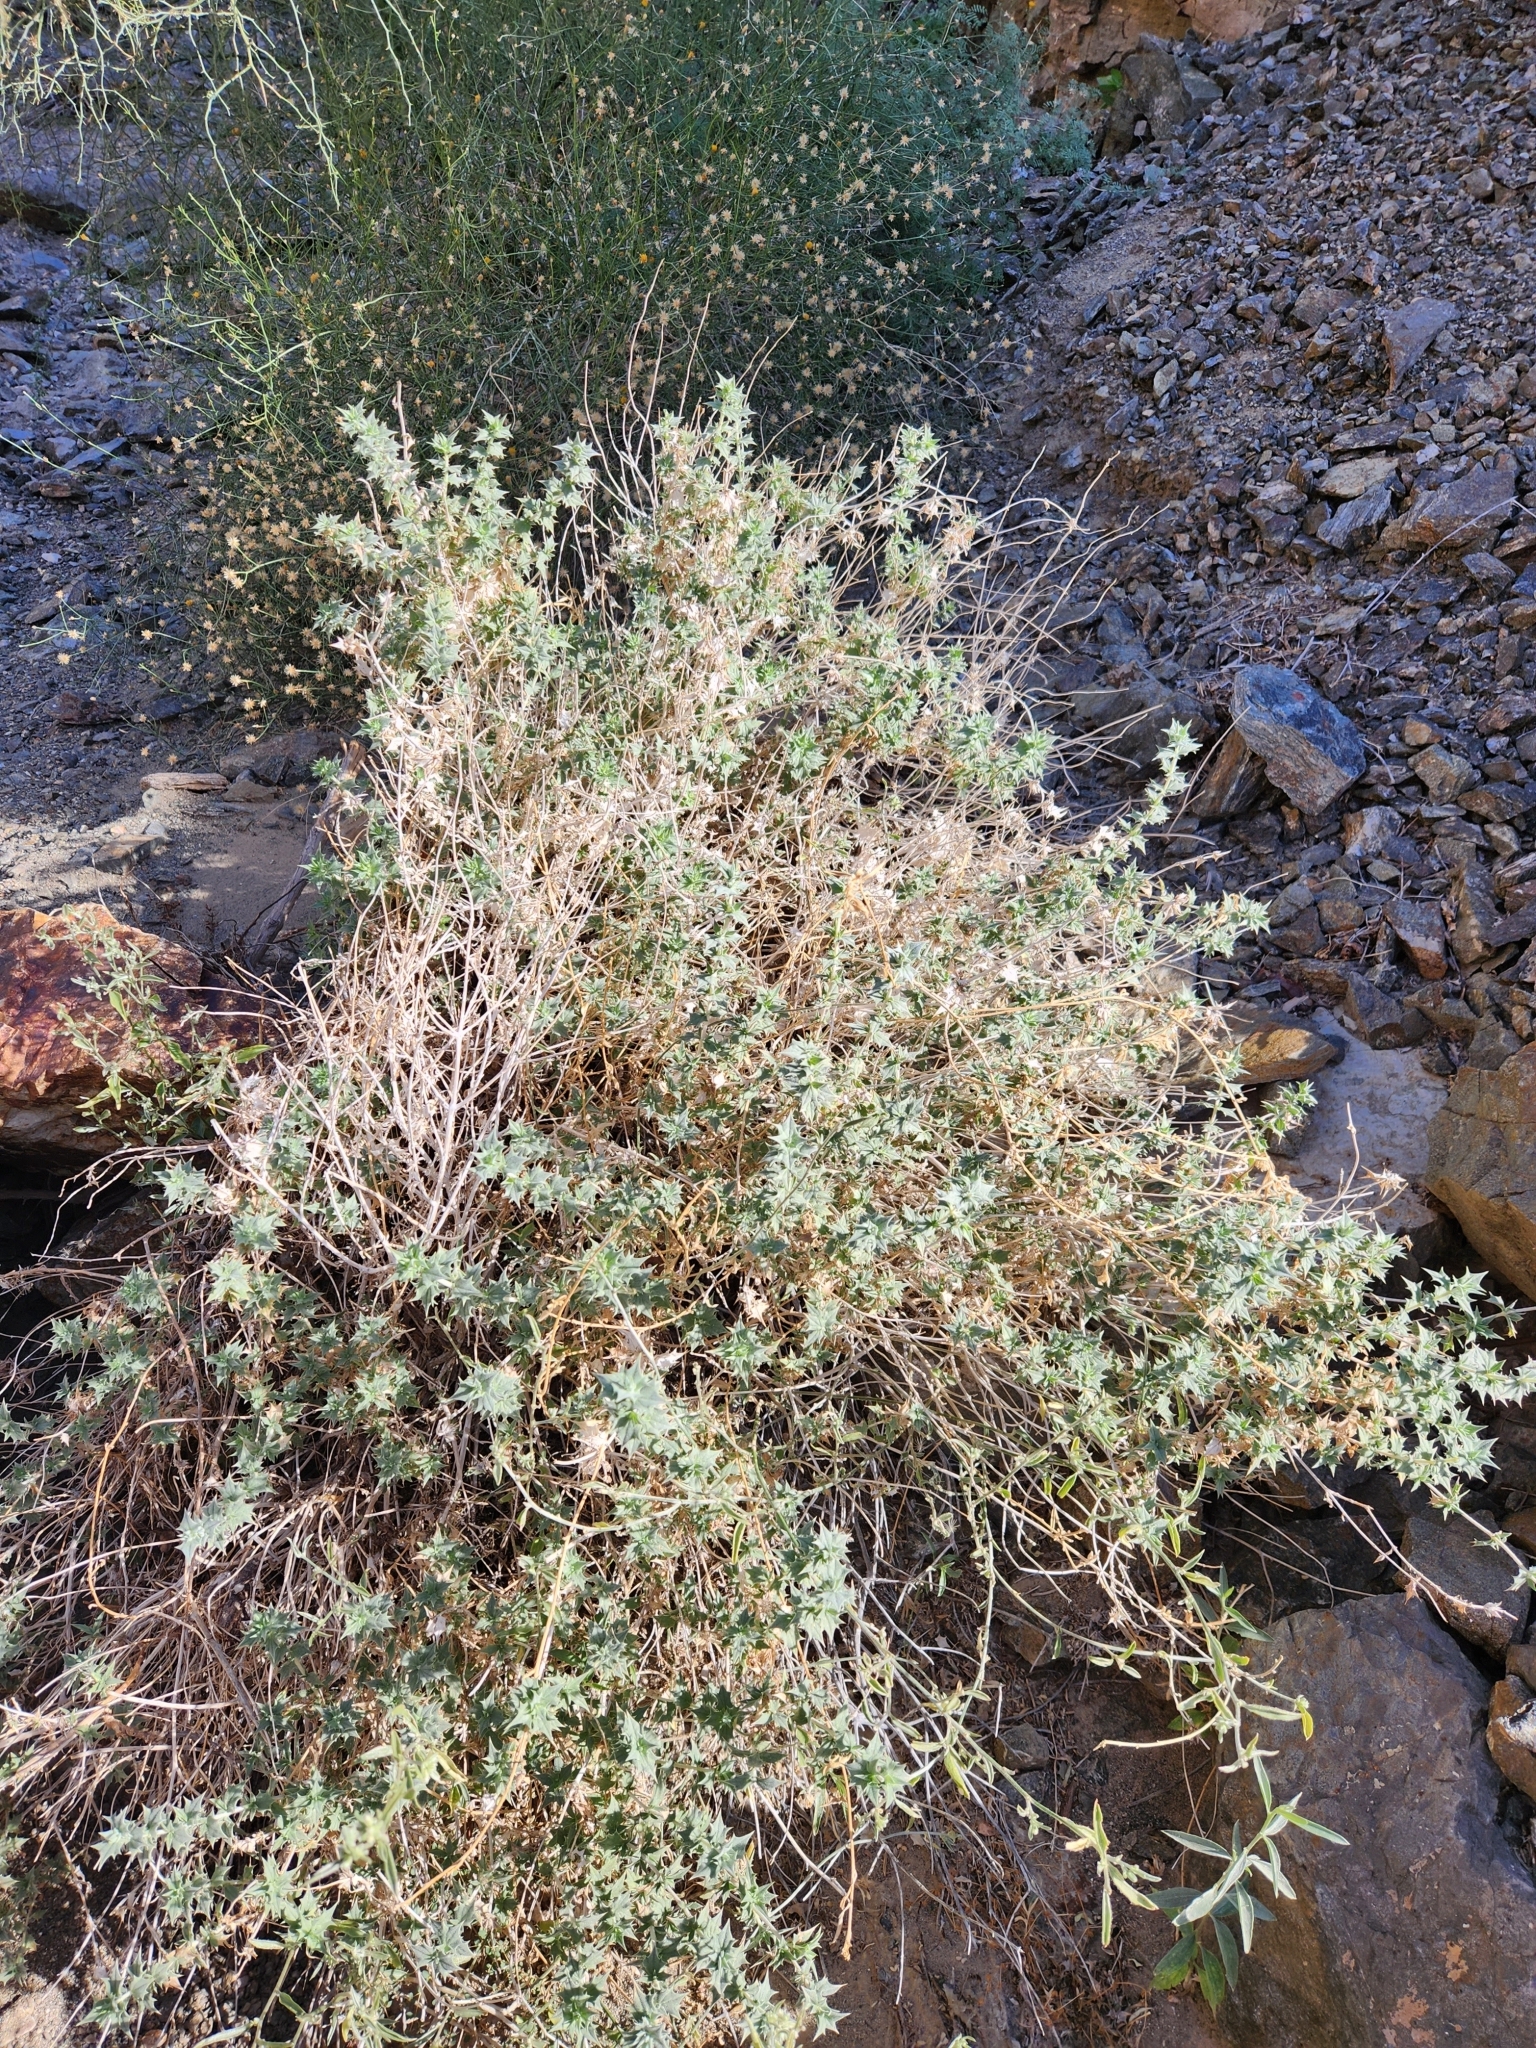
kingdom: Plantae
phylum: Tracheophyta
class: Magnoliopsida
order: Lamiales
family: Lamiaceae
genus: Salvia
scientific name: Salvia greatae
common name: Orocopia sage
